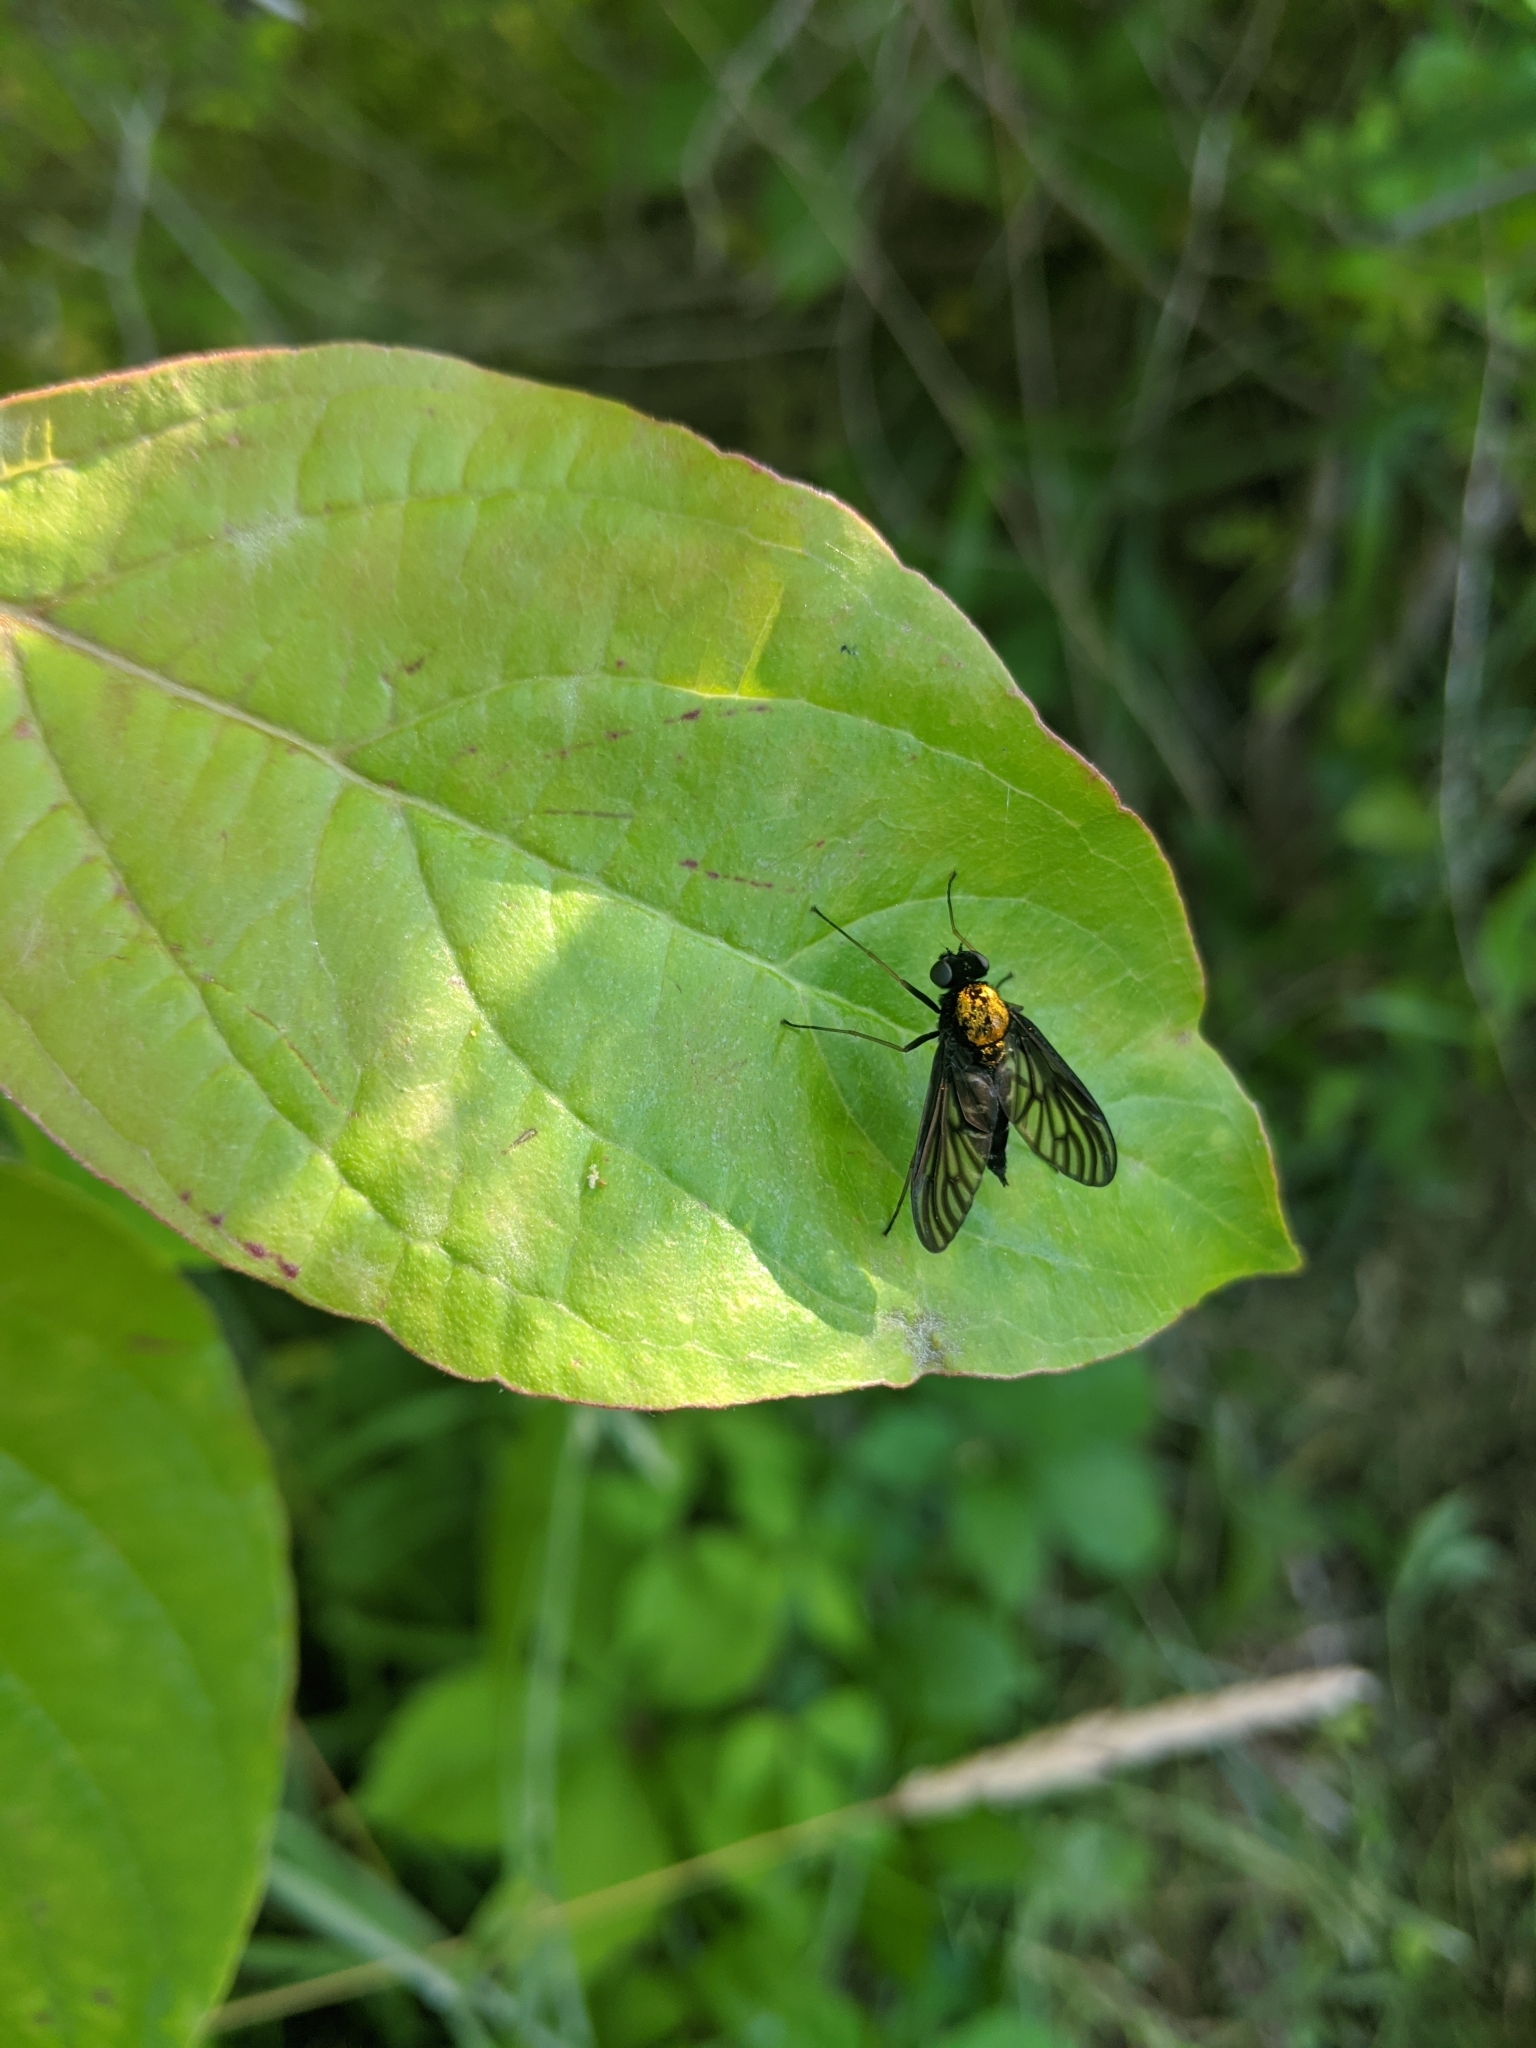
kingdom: Animalia
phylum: Arthropoda
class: Insecta
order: Diptera
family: Rhagionidae
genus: Chrysopilus
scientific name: Chrysopilus thoracicus
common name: Golden-backed snipe fly
